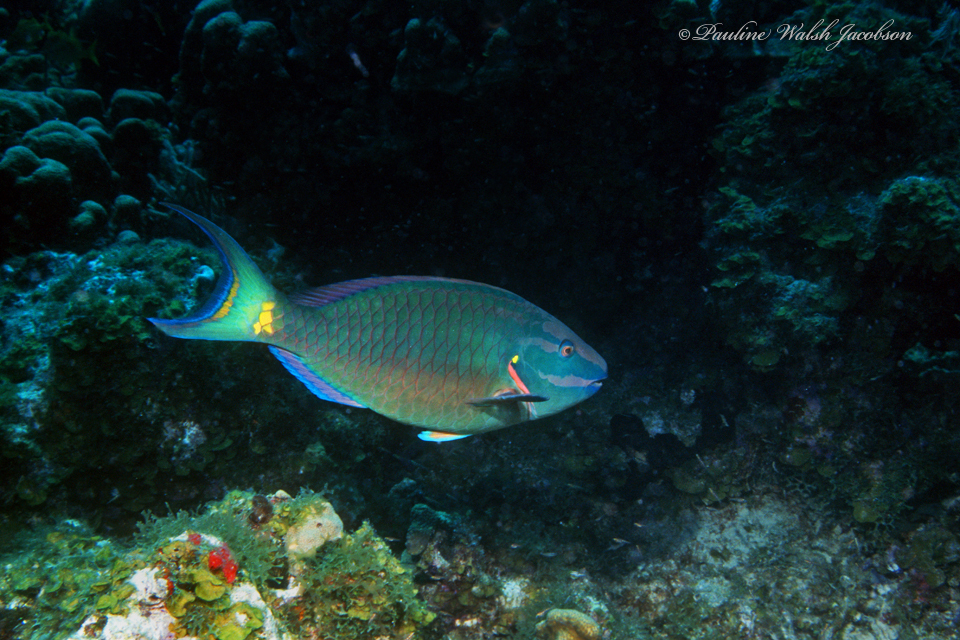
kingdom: Animalia
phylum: Chordata
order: Perciformes
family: Scaridae
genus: Sparisoma
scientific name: Sparisoma viride
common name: Stoplight parrotfish
